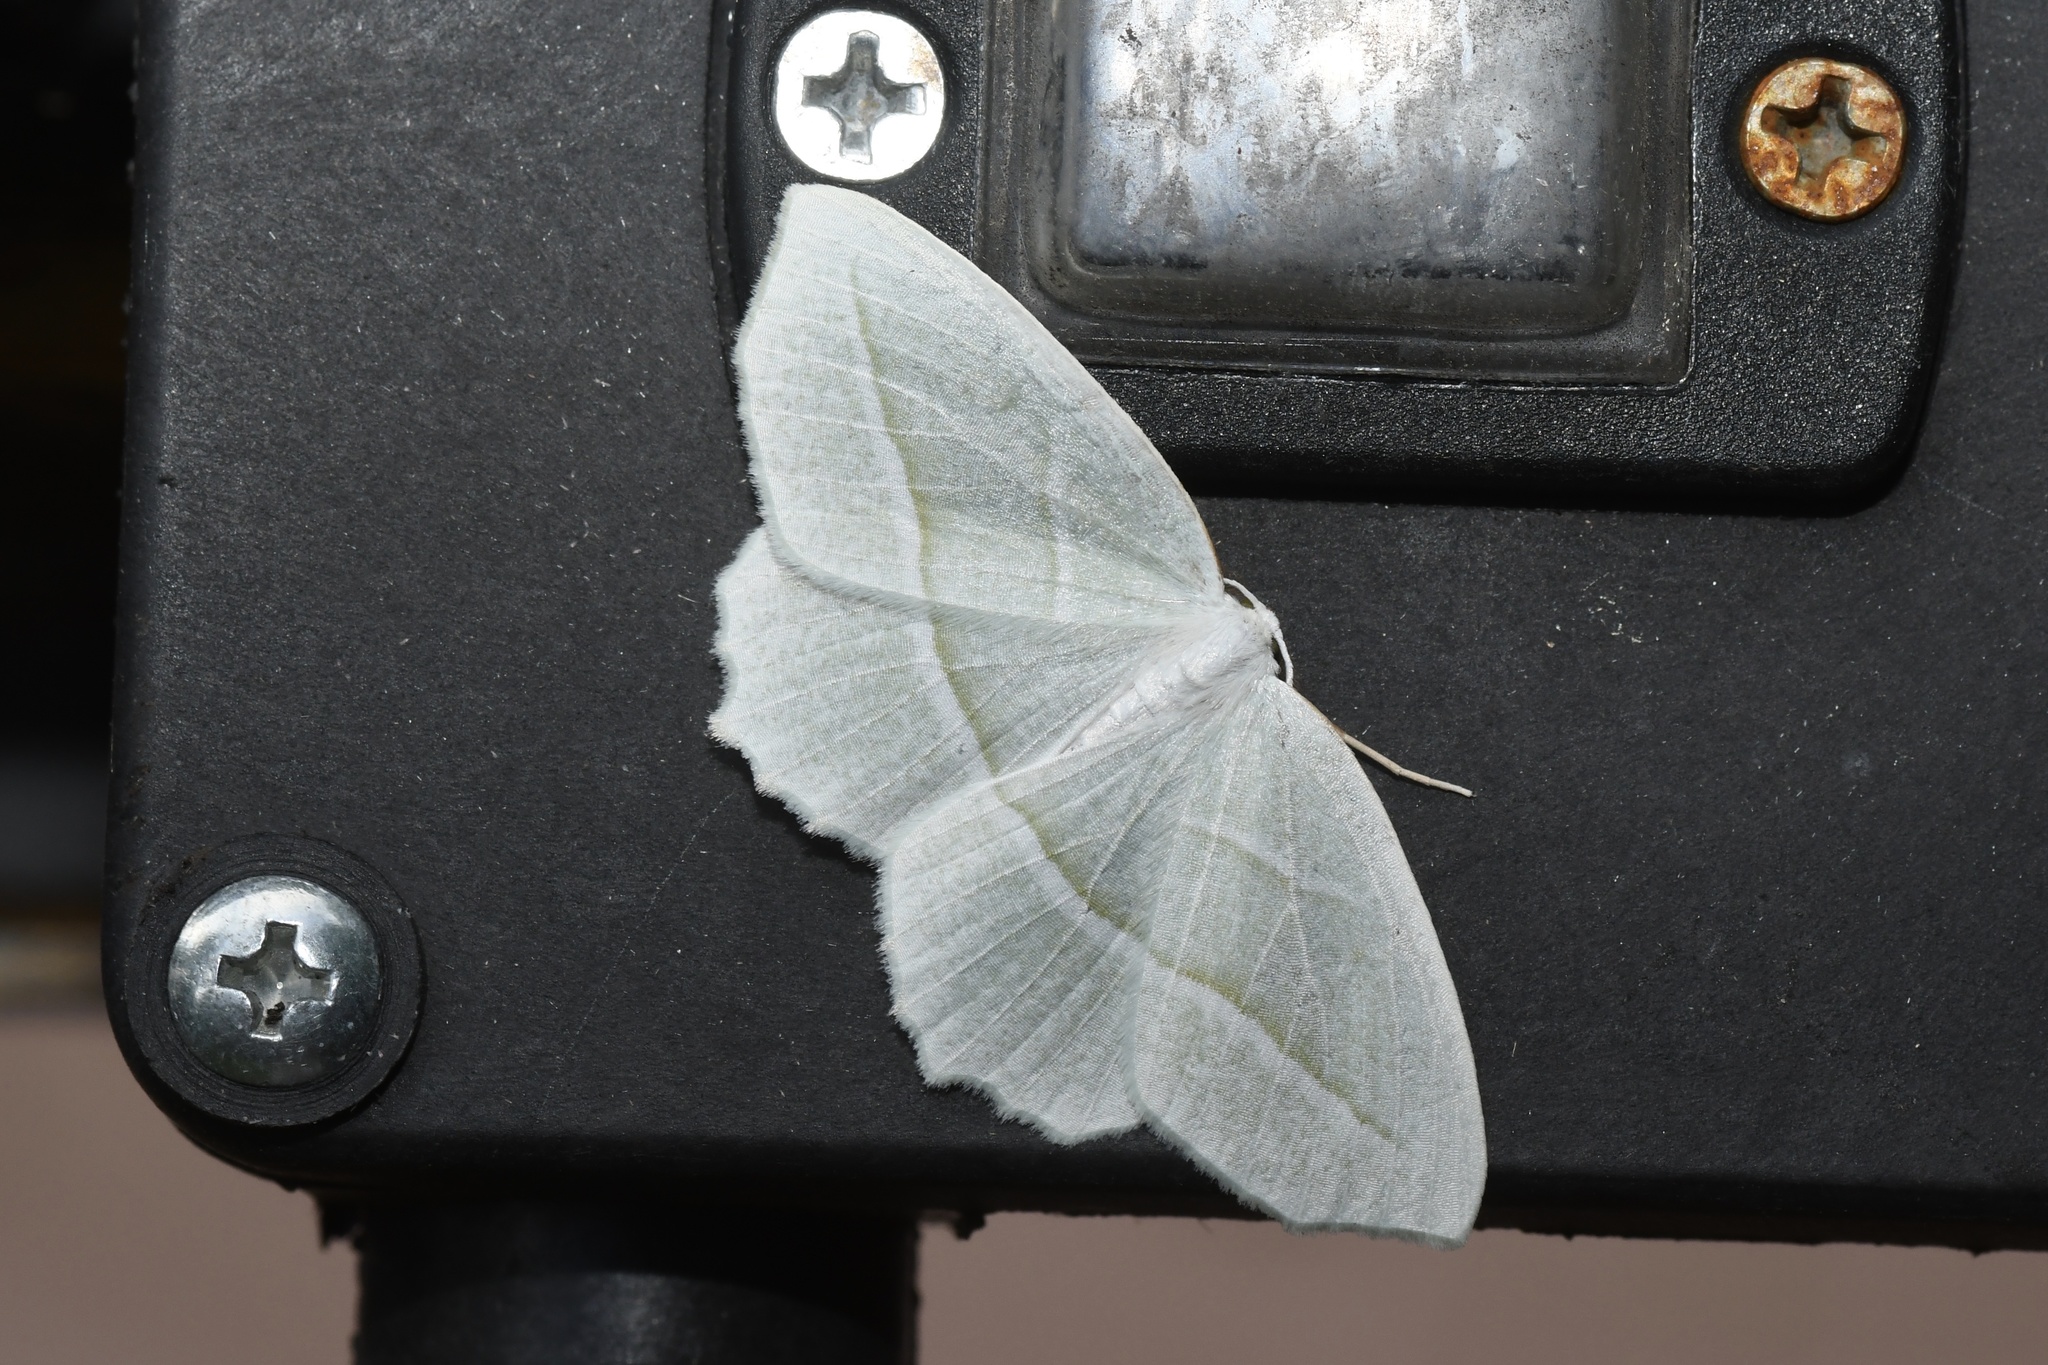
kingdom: Animalia
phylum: Arthropoda
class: Insecta
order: Lepidoptera
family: Geometridae
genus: Campaea
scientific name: Campaea perlata
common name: Fringed looper
